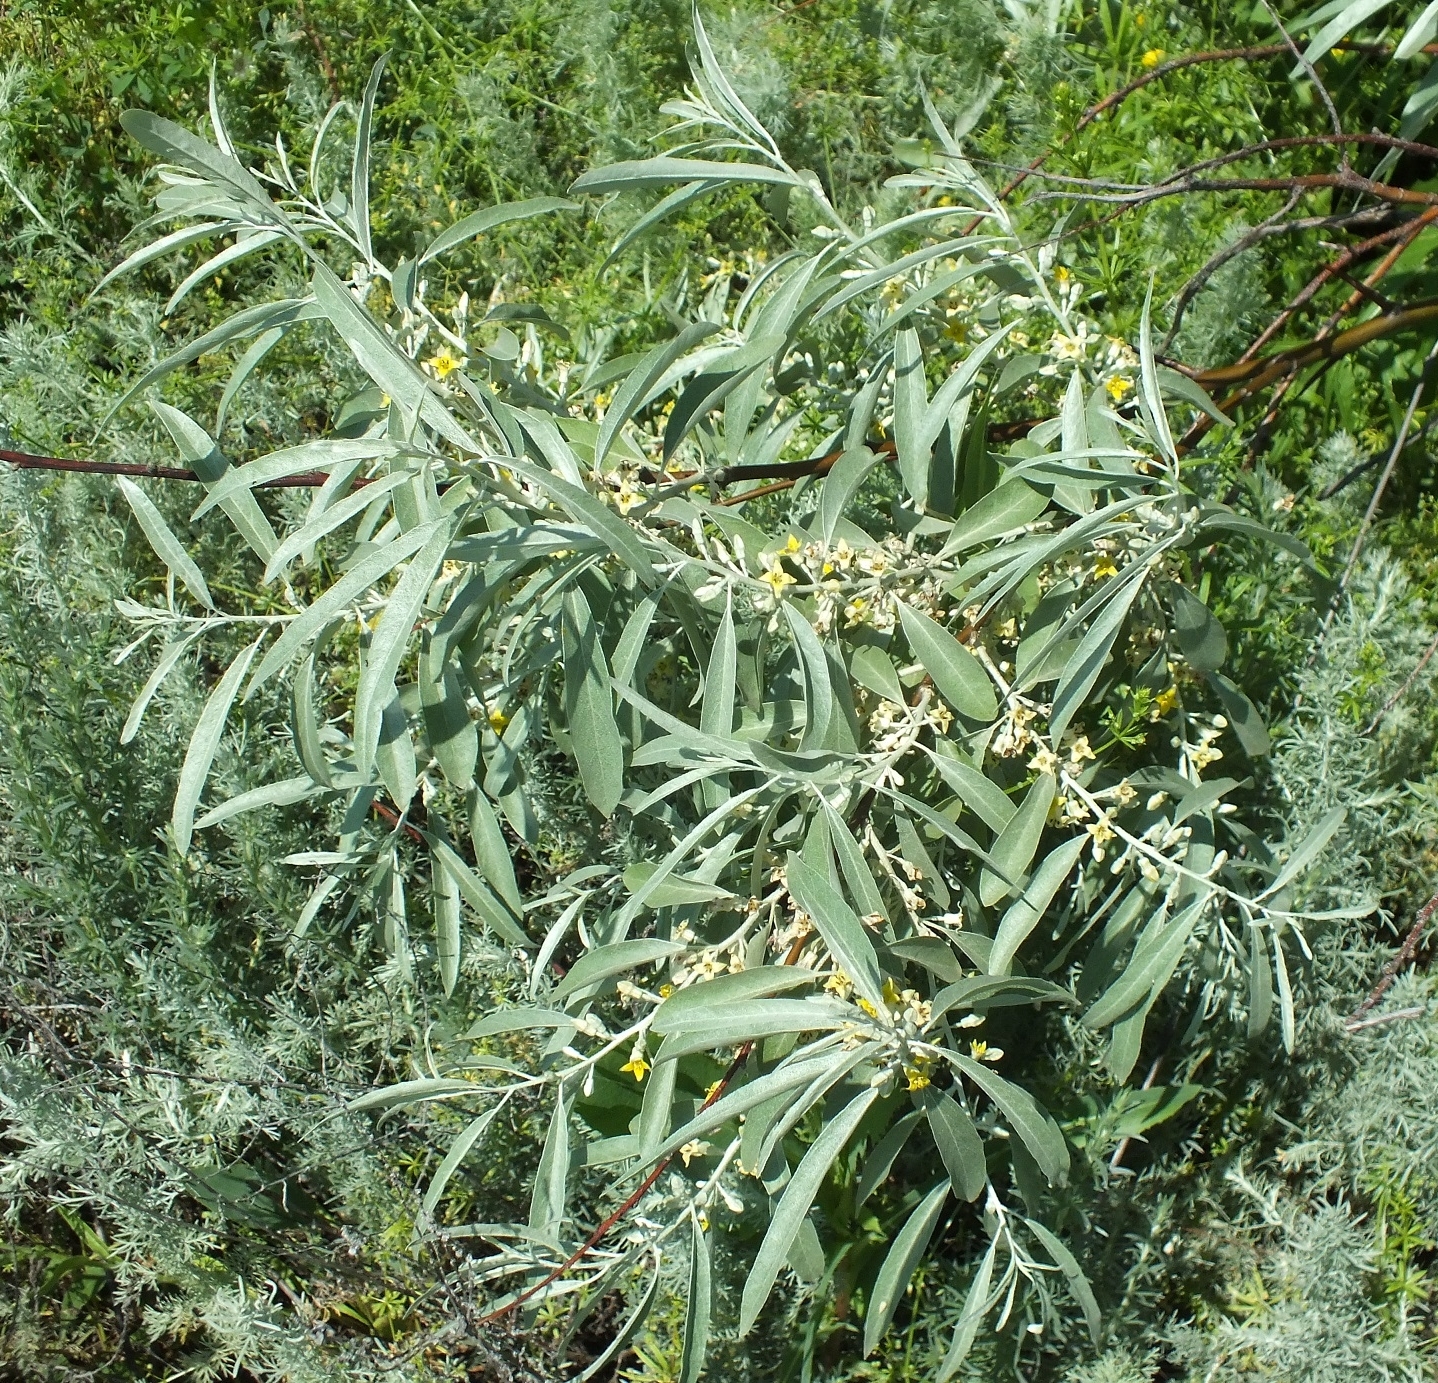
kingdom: Plantae
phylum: Tracheophyta
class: Magnoliopsida
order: Rosales
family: Elaeagnaceae
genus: Elaeagnus
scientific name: Elaeagnus angustifolia
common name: Russian olive
